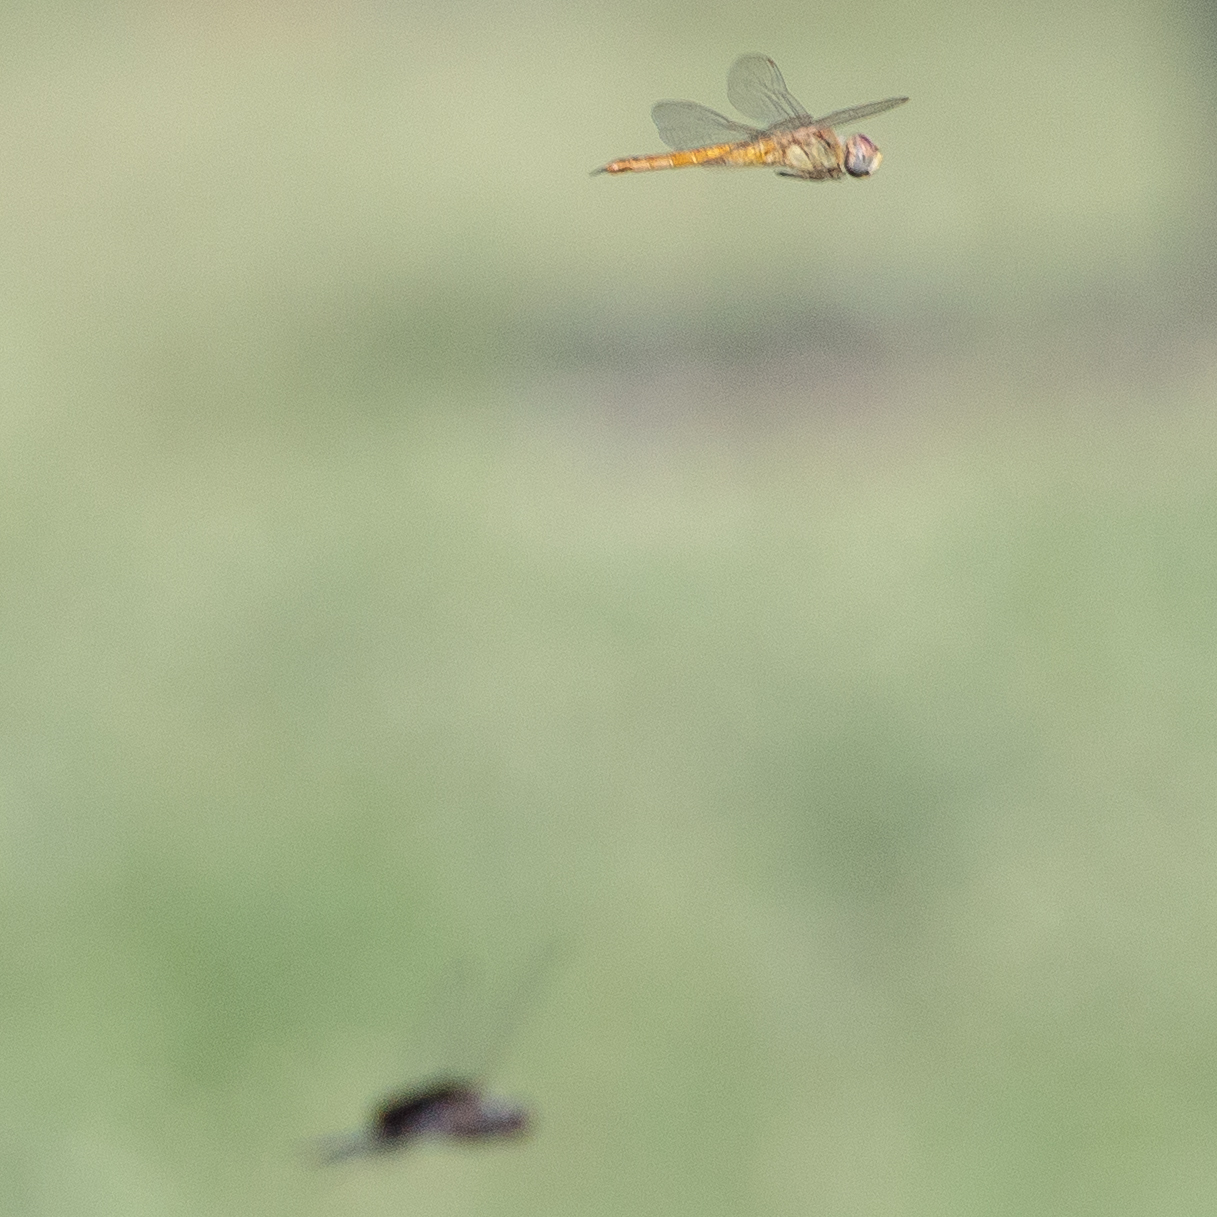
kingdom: Animalia
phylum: Arthropoda
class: Insecta
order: Odonata
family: Libellulidae
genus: Pantala
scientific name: Pantala flavescens
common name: Wandering glider
